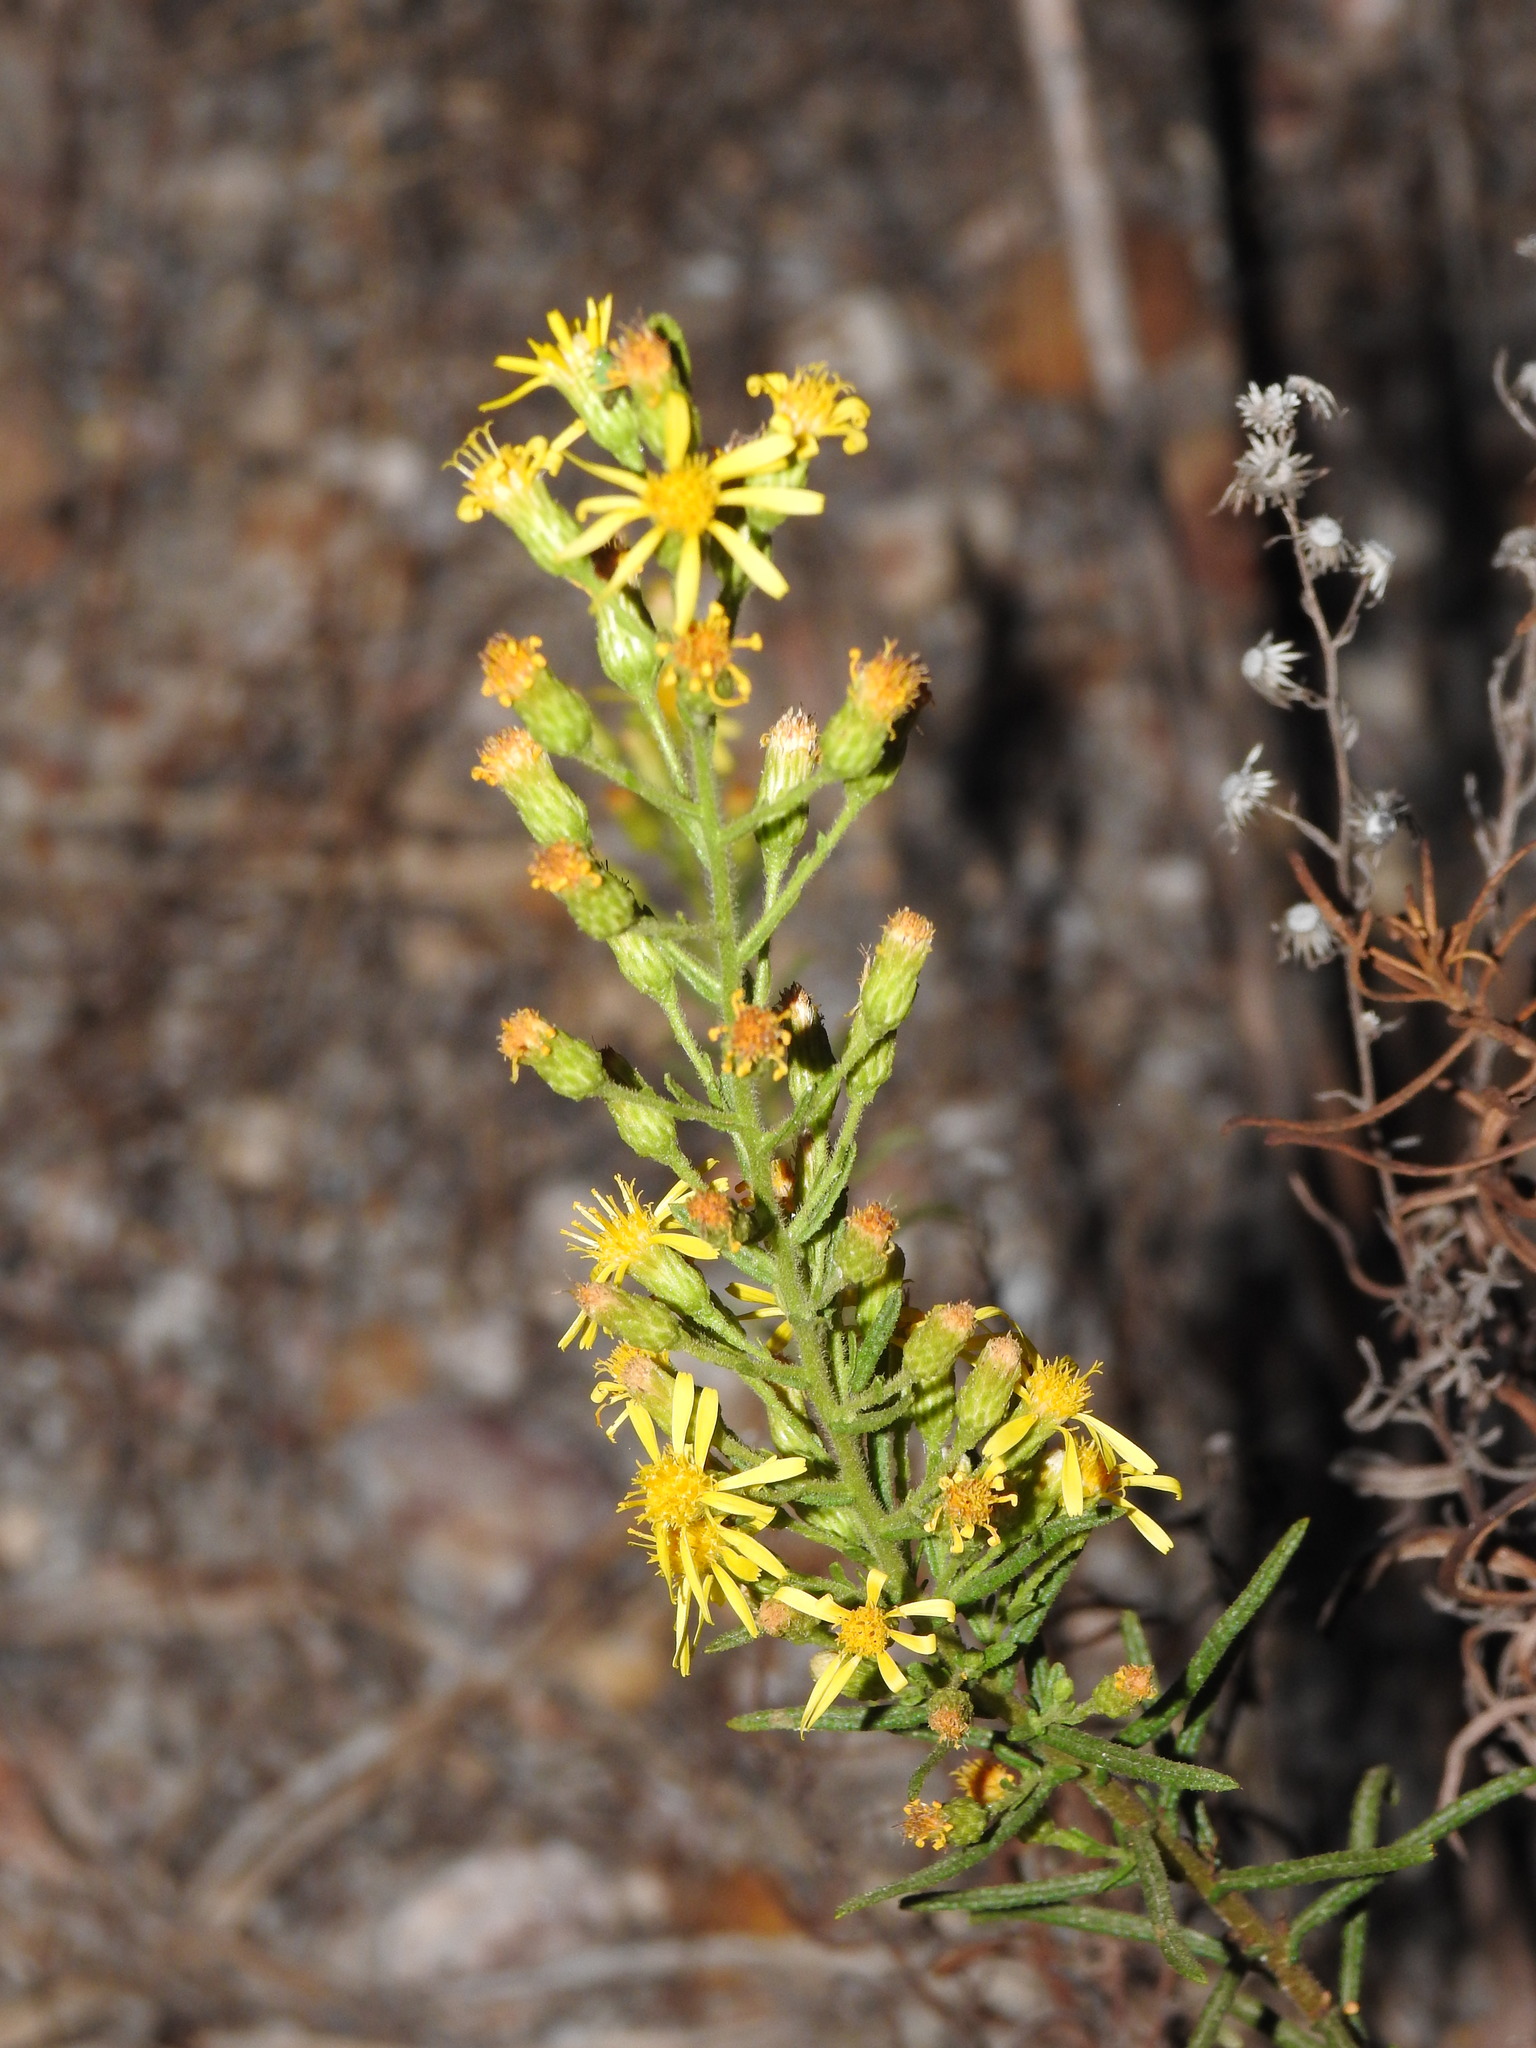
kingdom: Plantae
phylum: Tracheophyta
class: Magnoliopsida
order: Asterales
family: Asteraceae
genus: Dittrichia
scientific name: Dittrichia viscosa
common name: Woody fleabane
